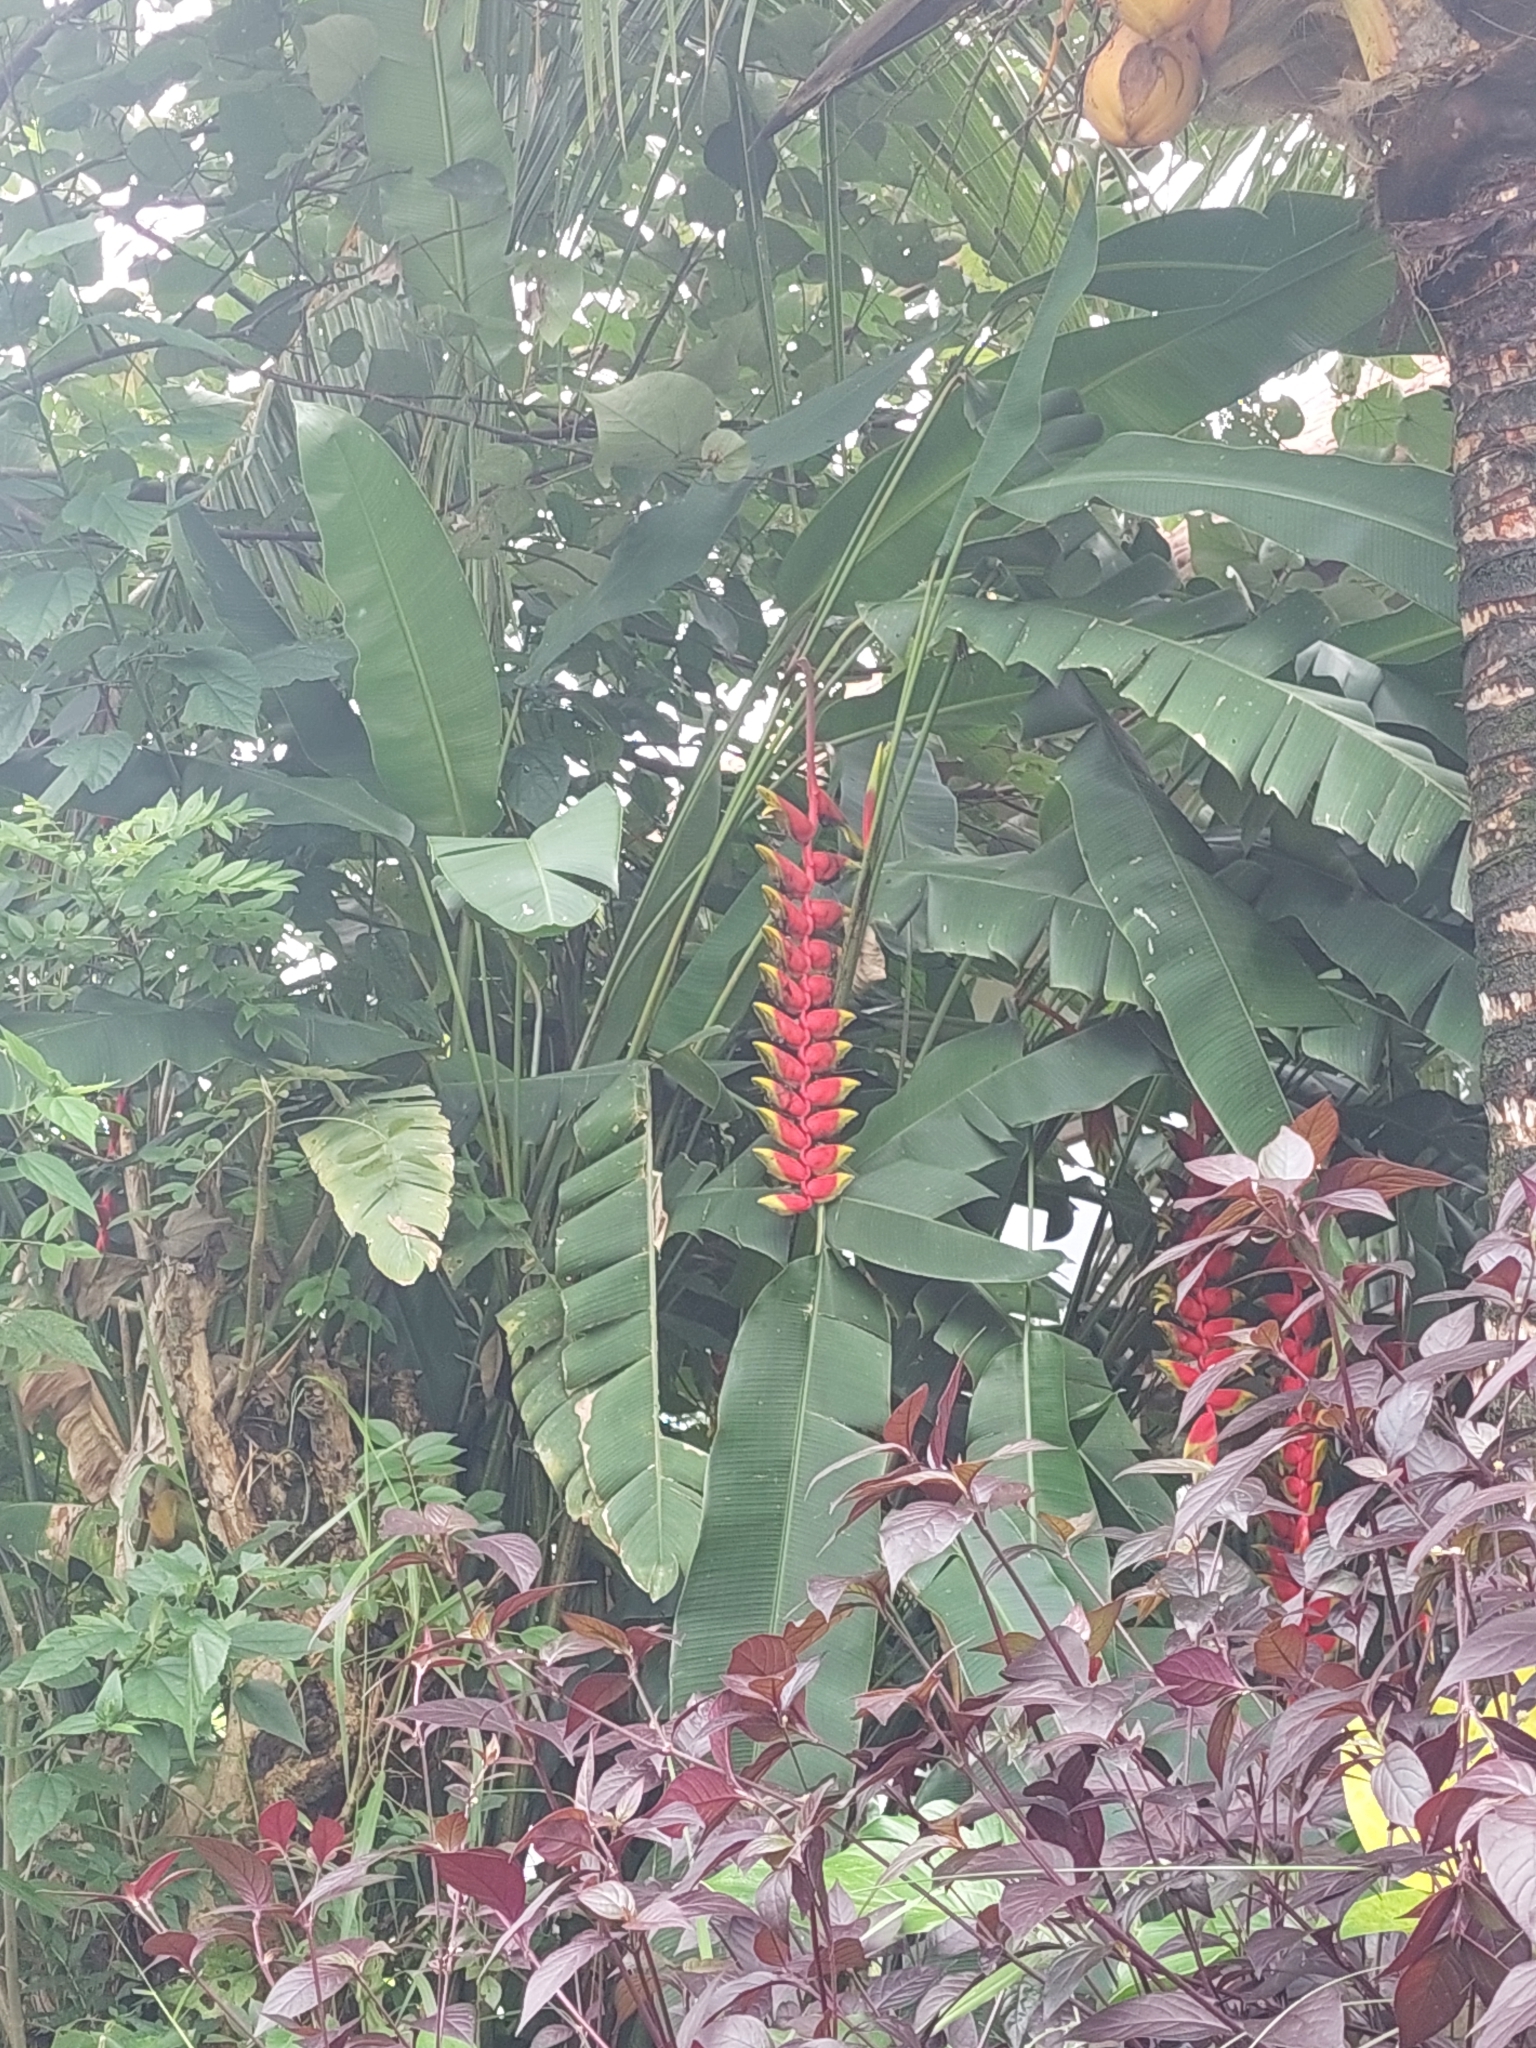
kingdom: Plantae
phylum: Tracheophyta
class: Liliopsida
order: Zingiberales
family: Heliconiaceae
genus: Heliconia
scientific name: Heliconia rostrata
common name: False bird of paradise
